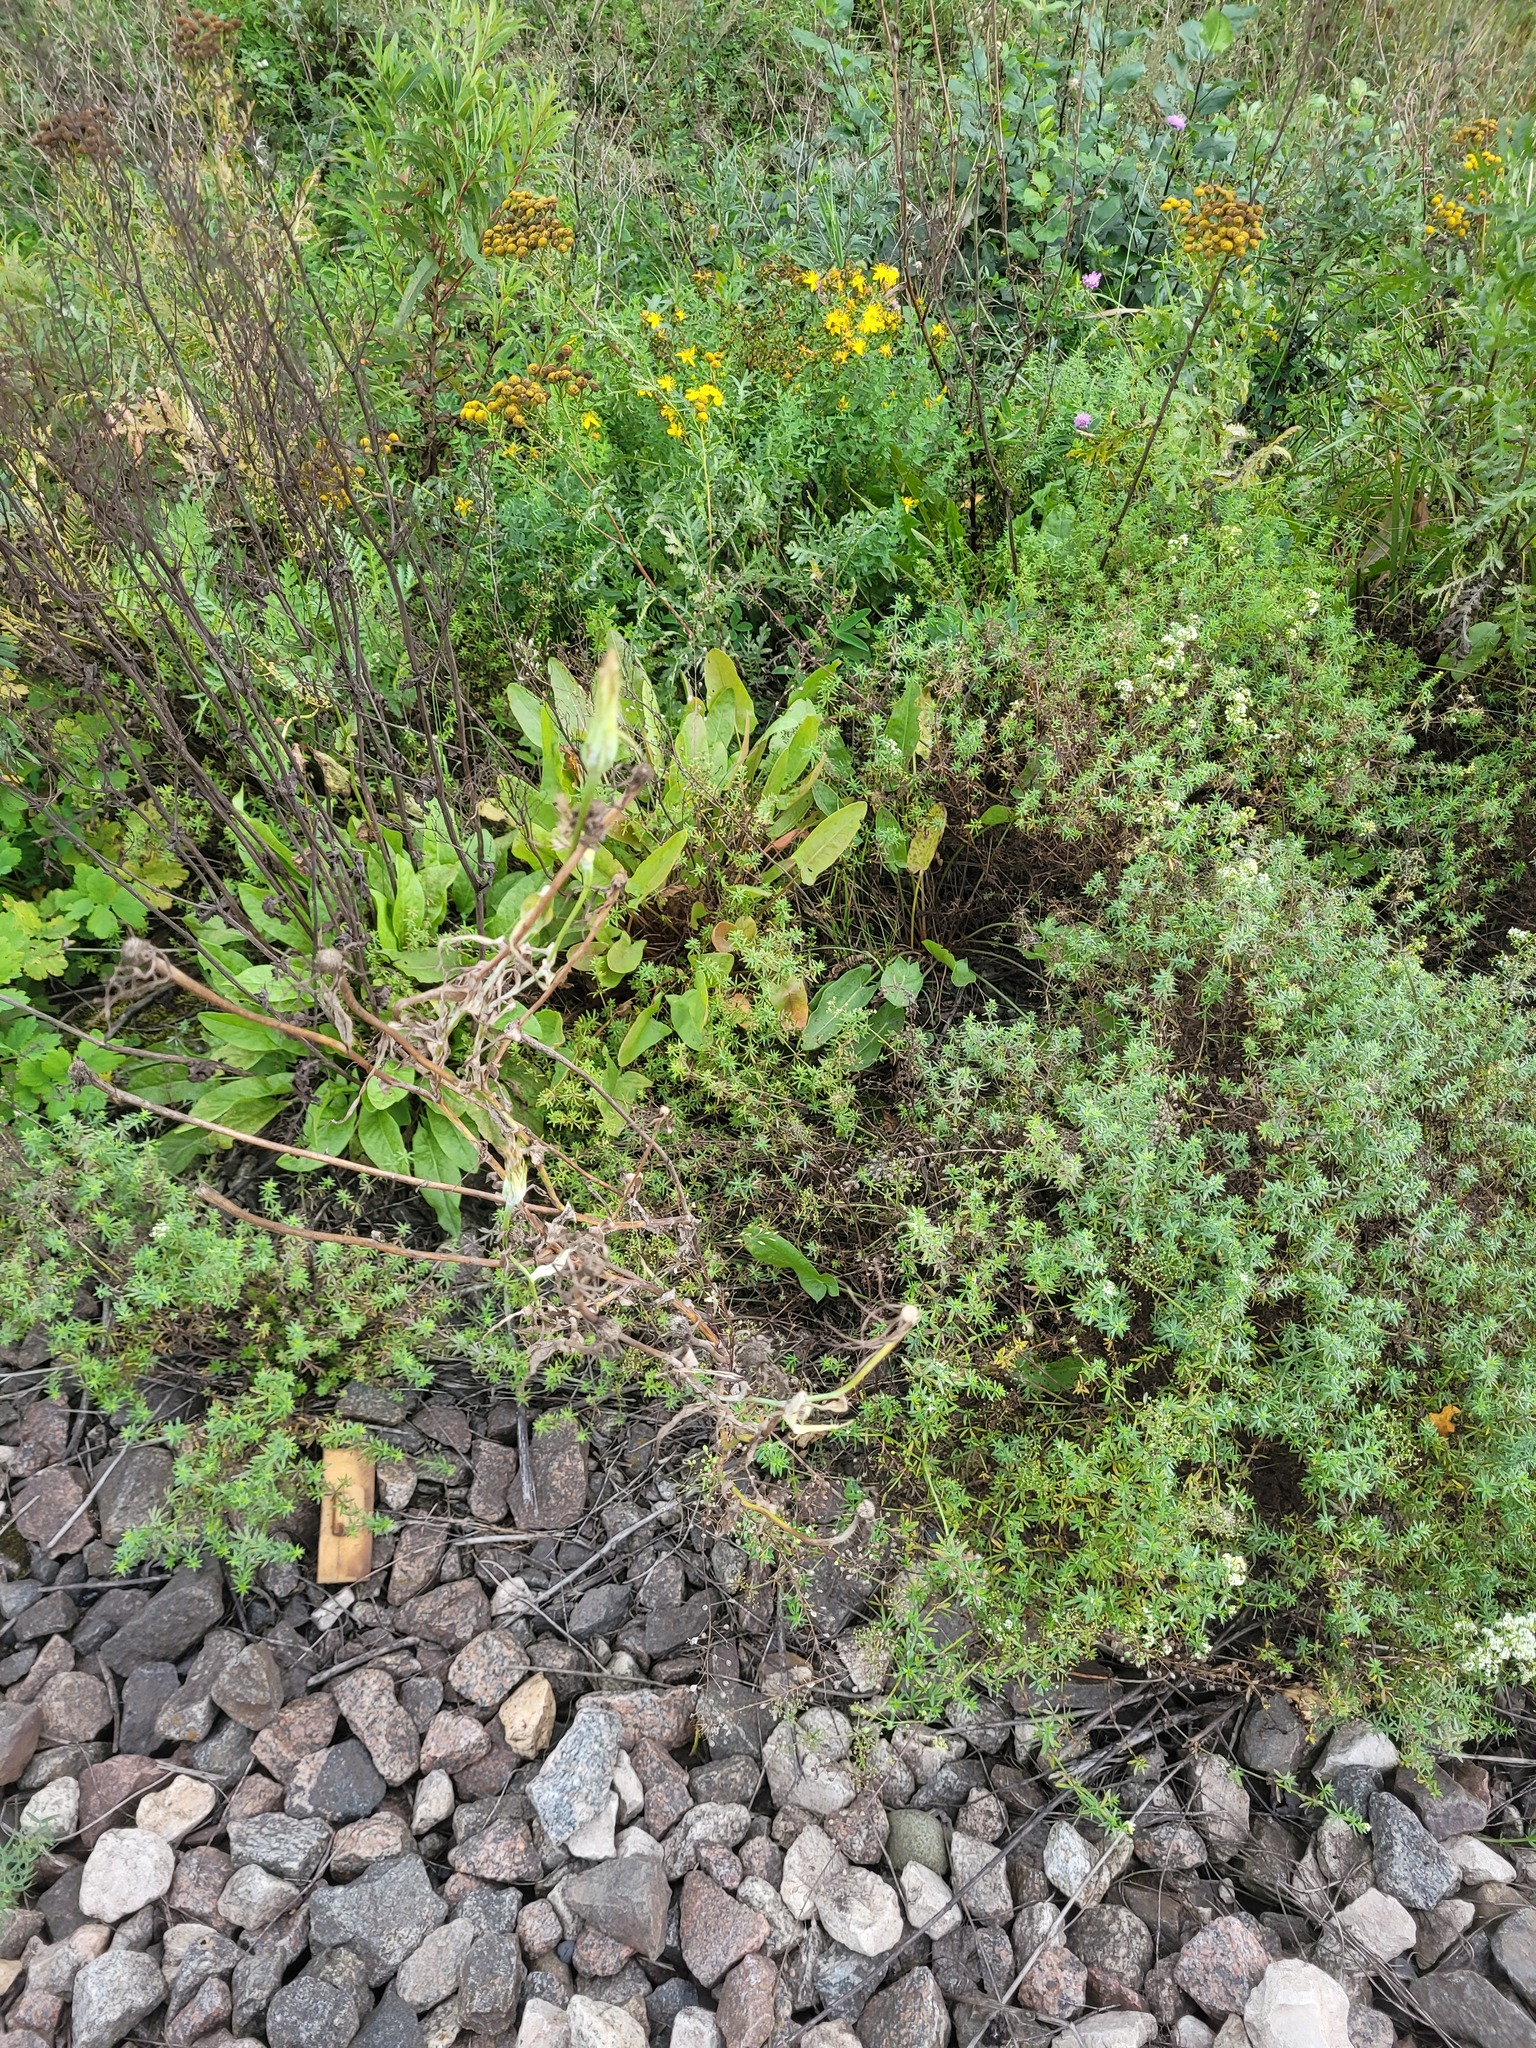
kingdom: Plantae
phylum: Tracheophyta
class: Magnoliopsida
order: Asterales
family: Asteraceae
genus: Tragopogon
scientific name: Tragopogon dubius
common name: Yellow salsify
